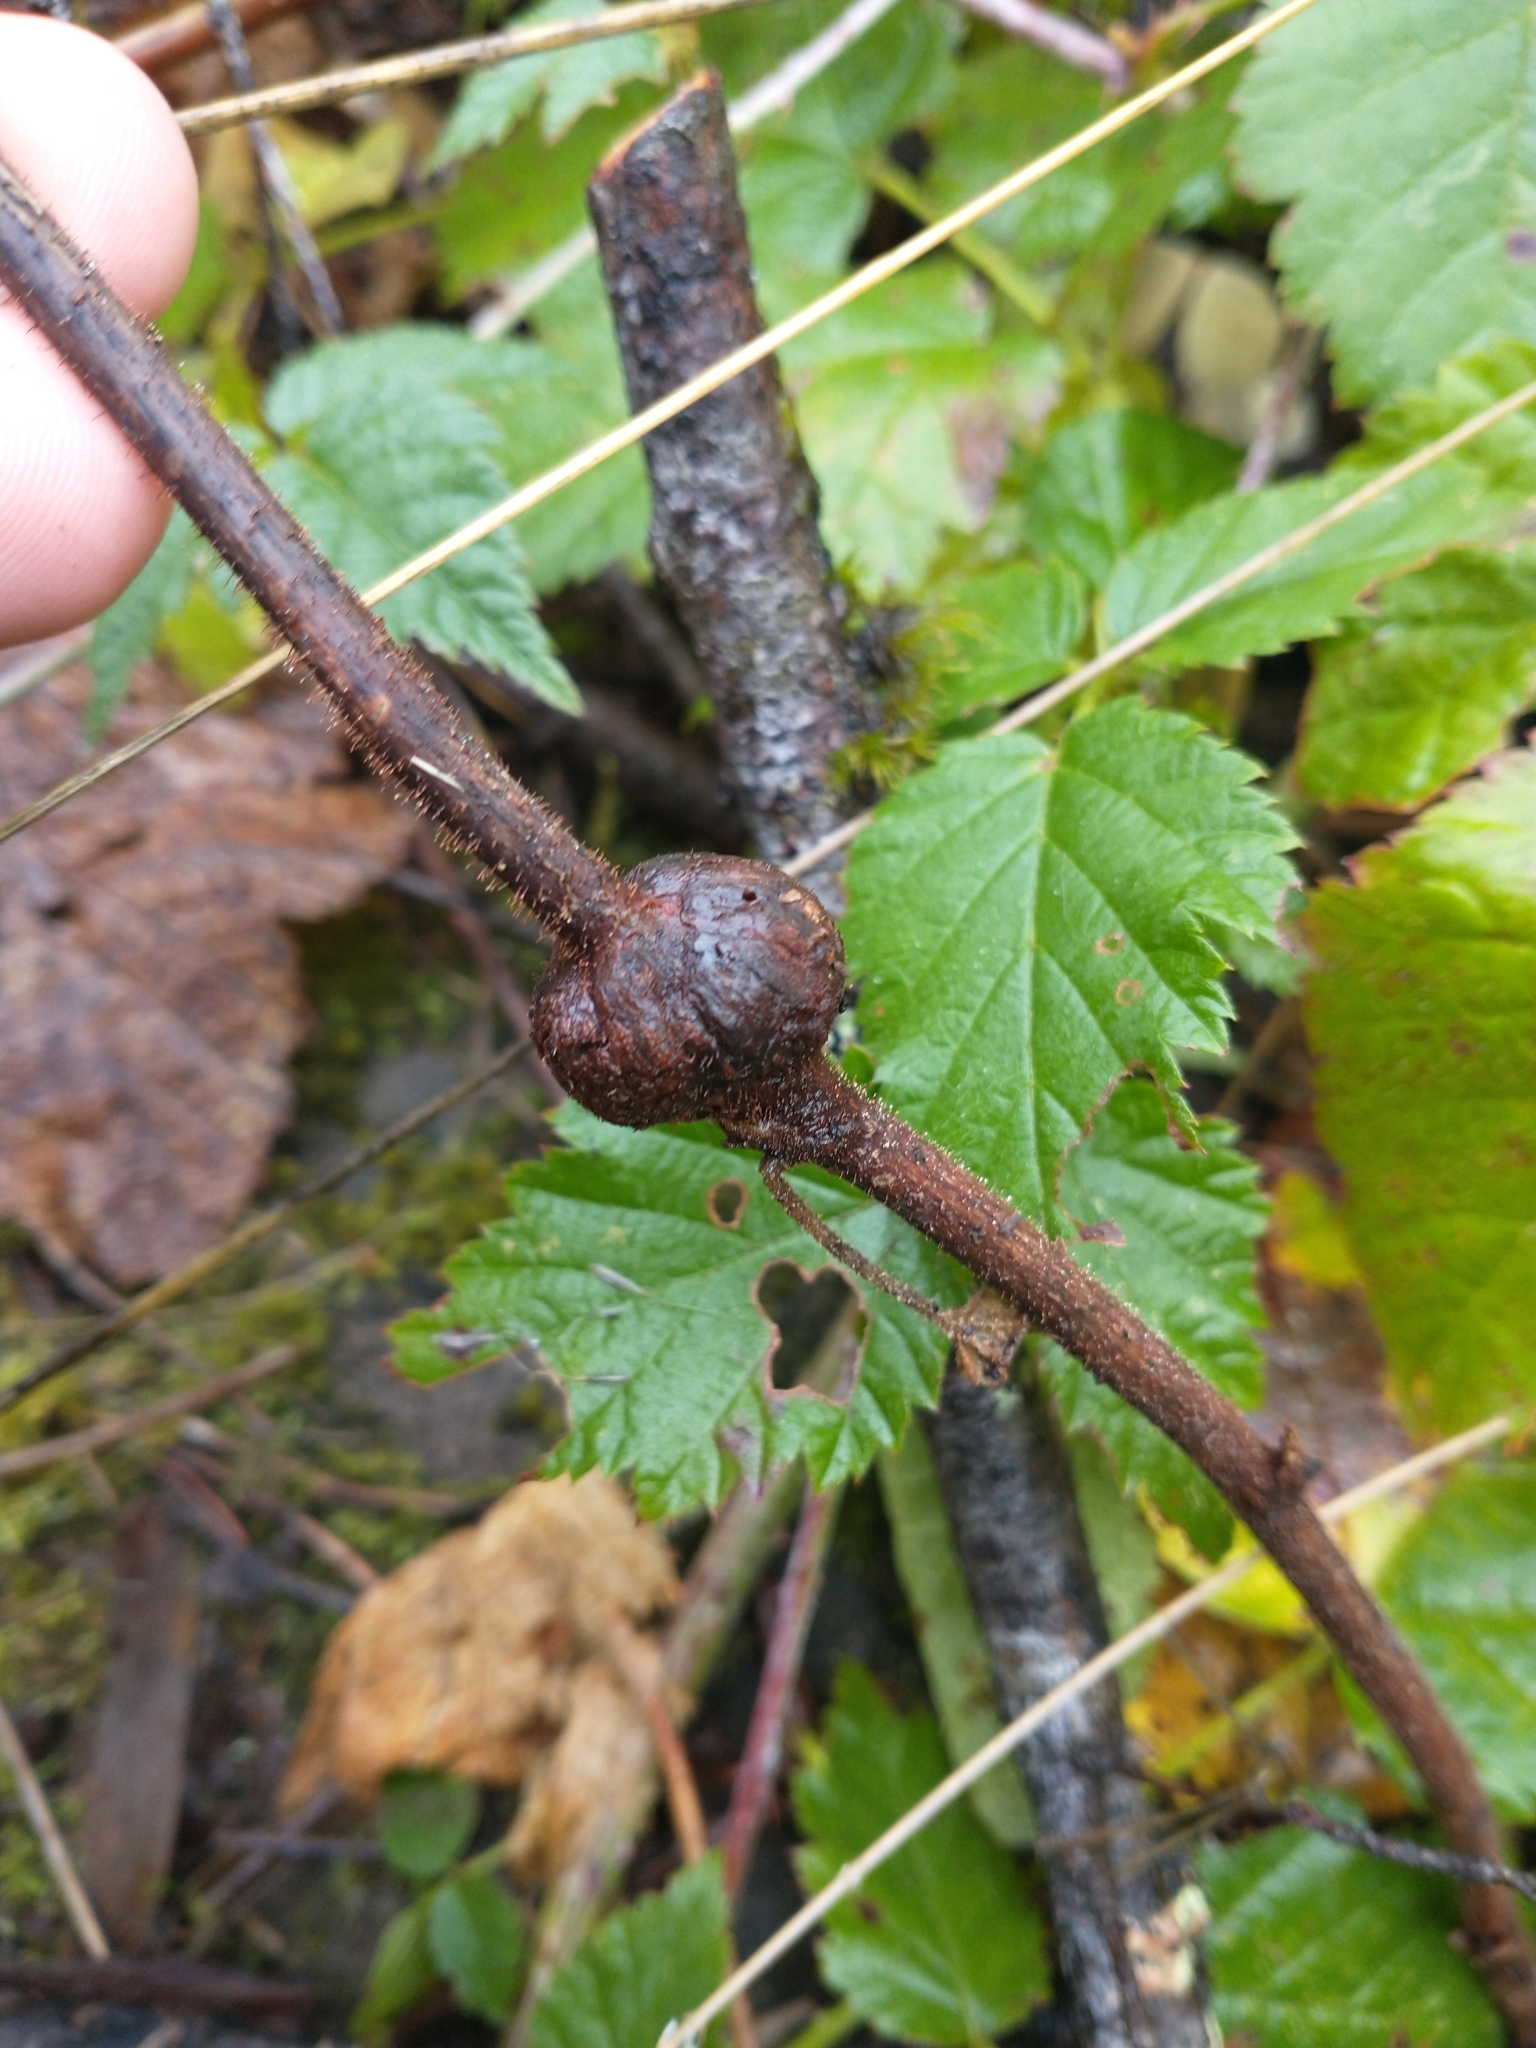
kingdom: Plantae
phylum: Tracheophyta
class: Magnoliopsida
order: Rosales
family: Rosaceae
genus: Rubus
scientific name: Rubus parviflorus
